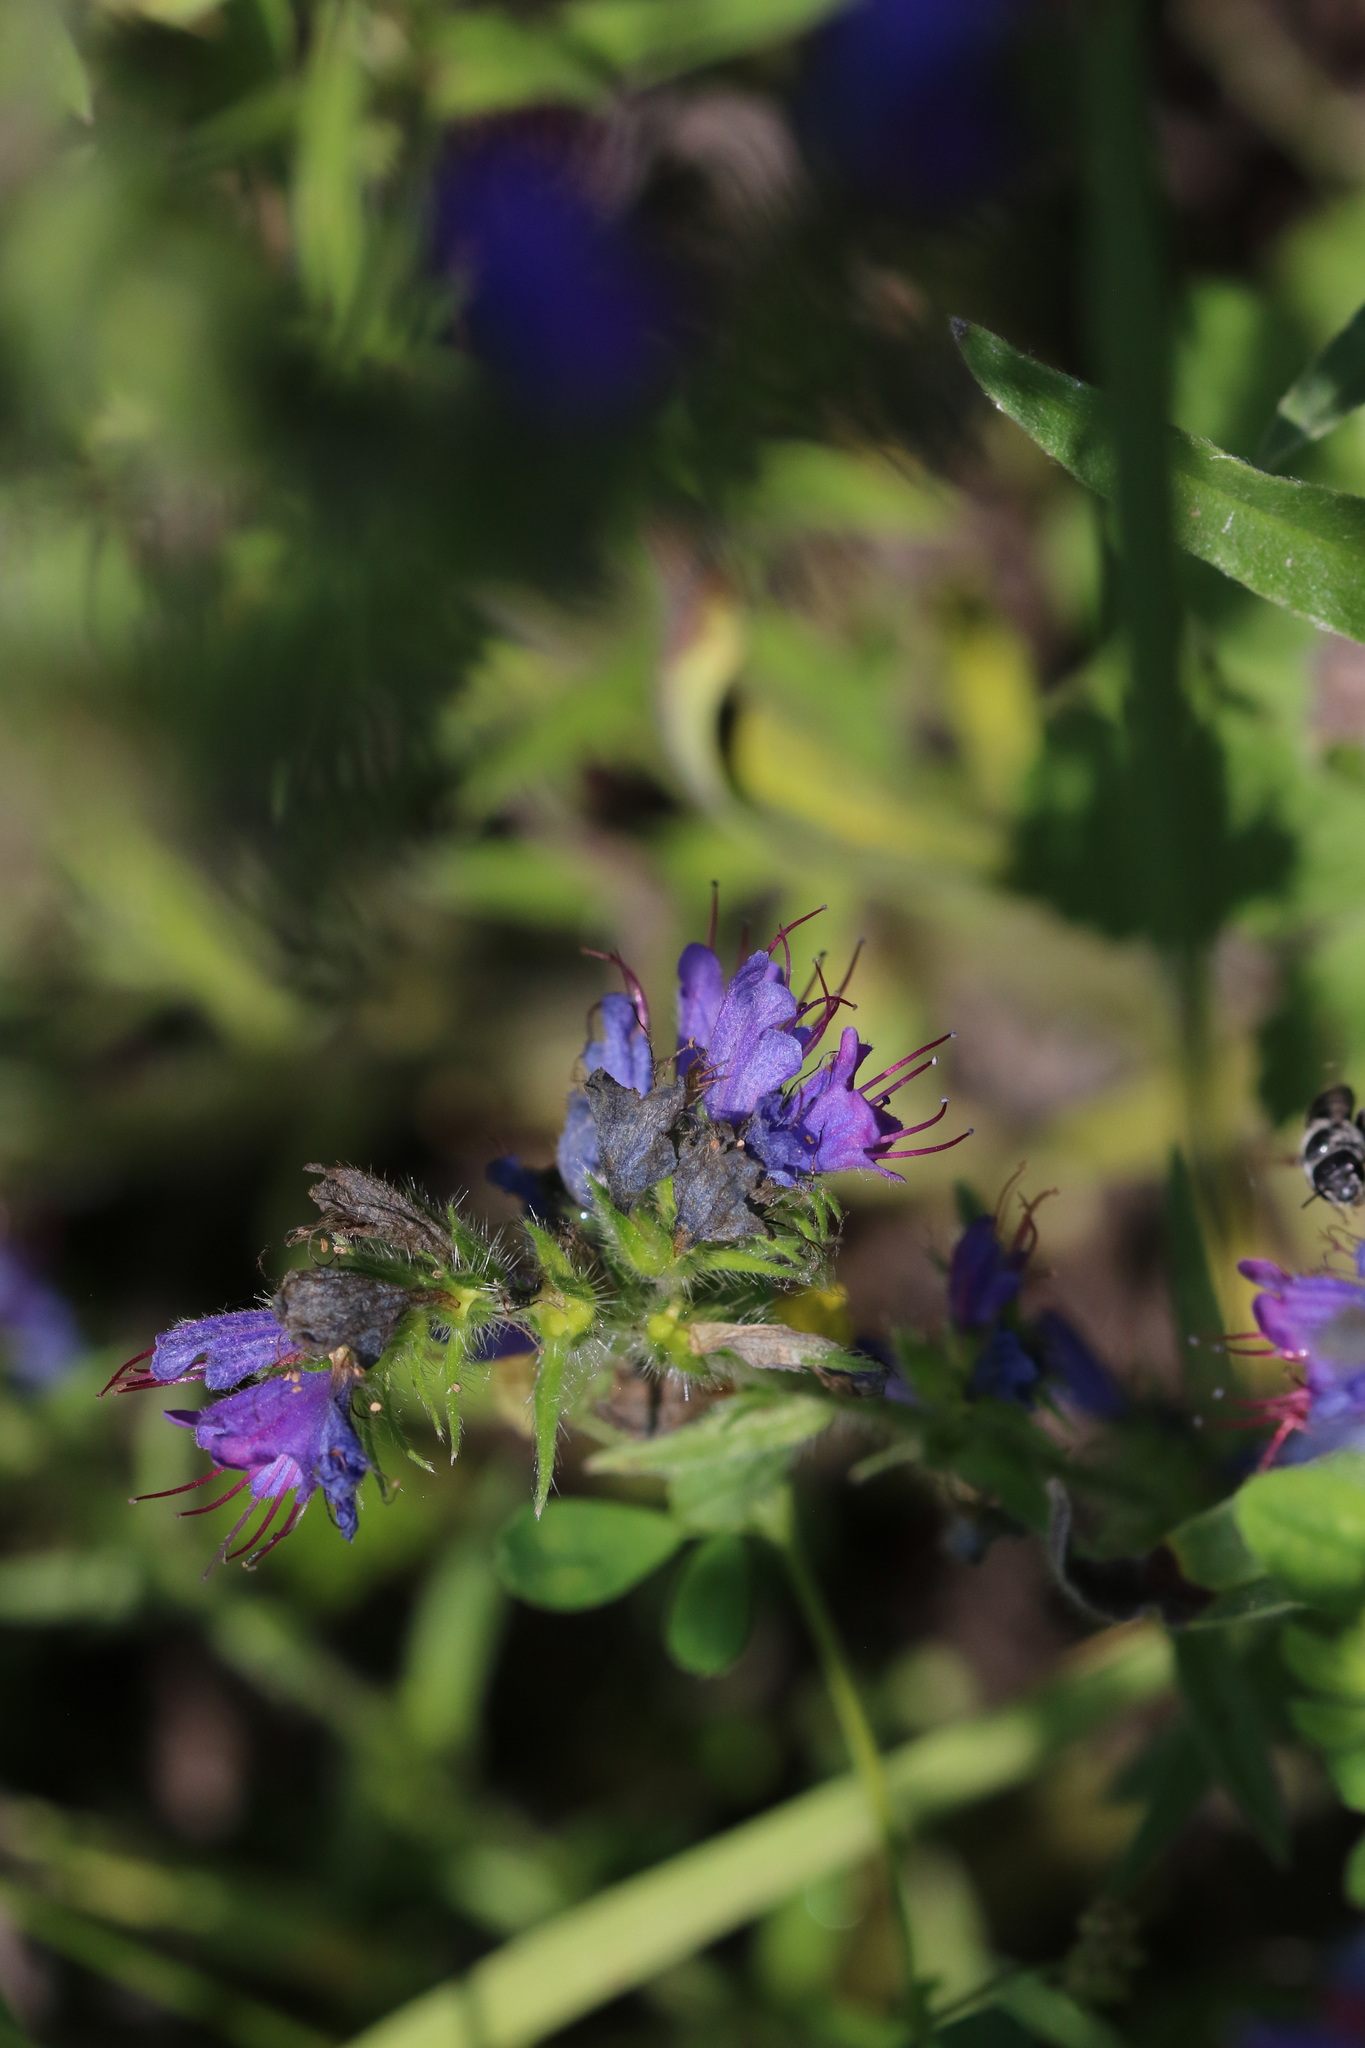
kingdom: Plantae
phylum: Tracheophyta
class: Magnoliopsida
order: Boraginales
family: Boraginaceae
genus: Echium
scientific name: Echium vulgare
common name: Common viper's bugloss
